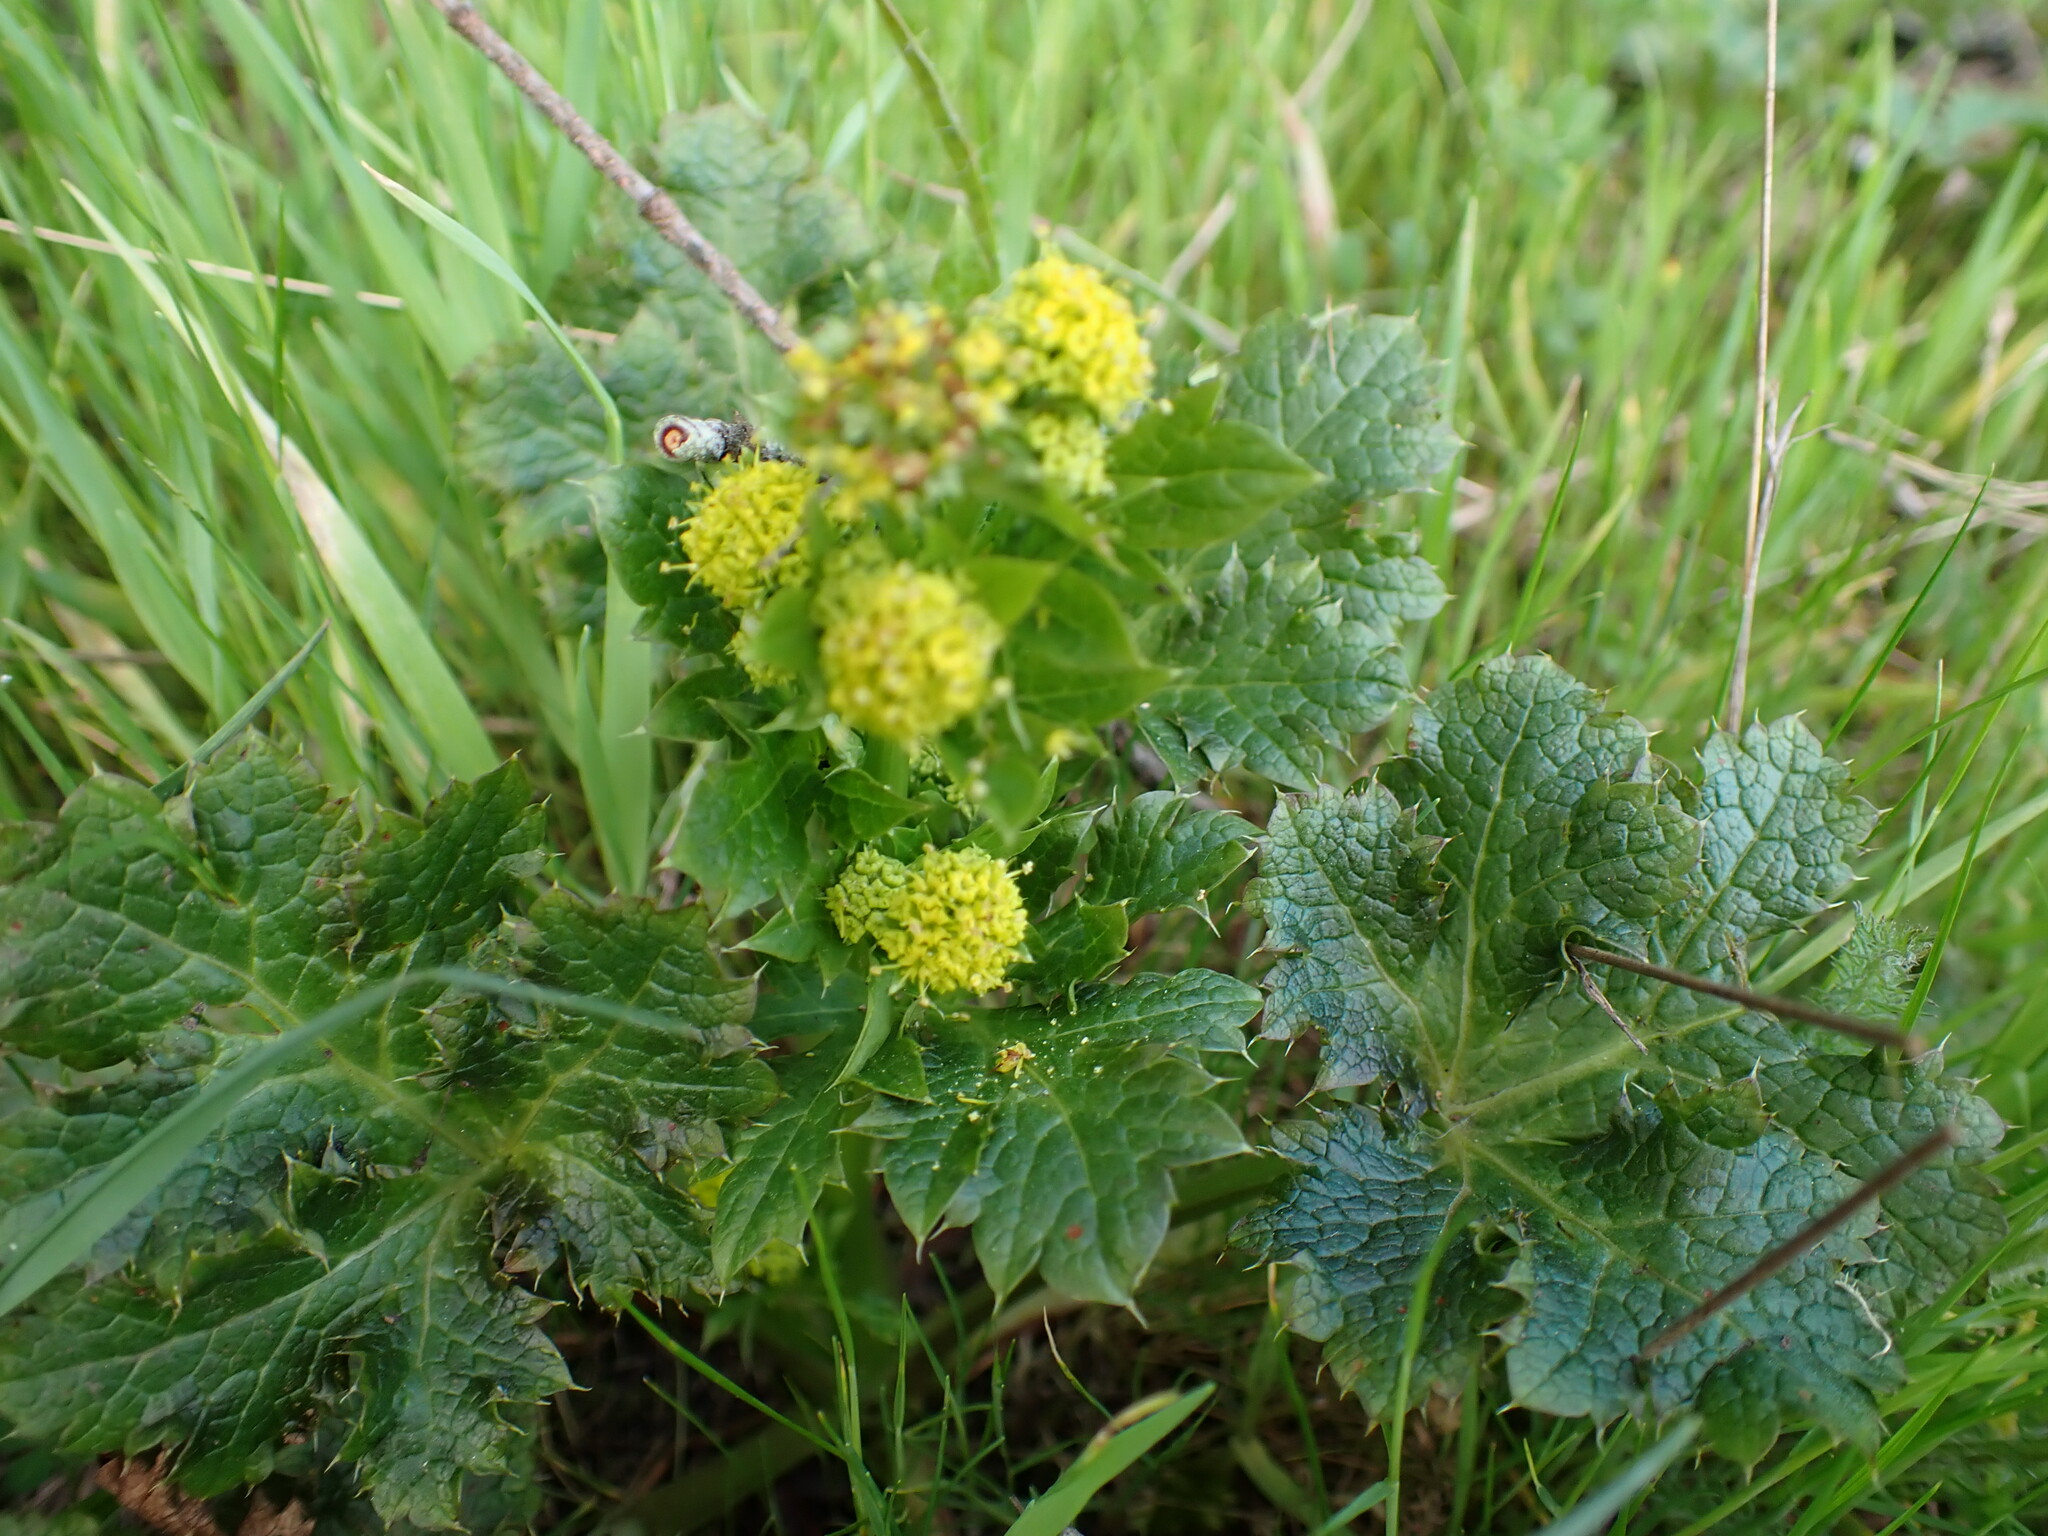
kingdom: Plantae
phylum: Tracheophyta
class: Magnoliopsida
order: Apiales
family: Apiaceae
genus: Sanicula
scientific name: Sanicula crassicaulis
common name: Western snakeroot
